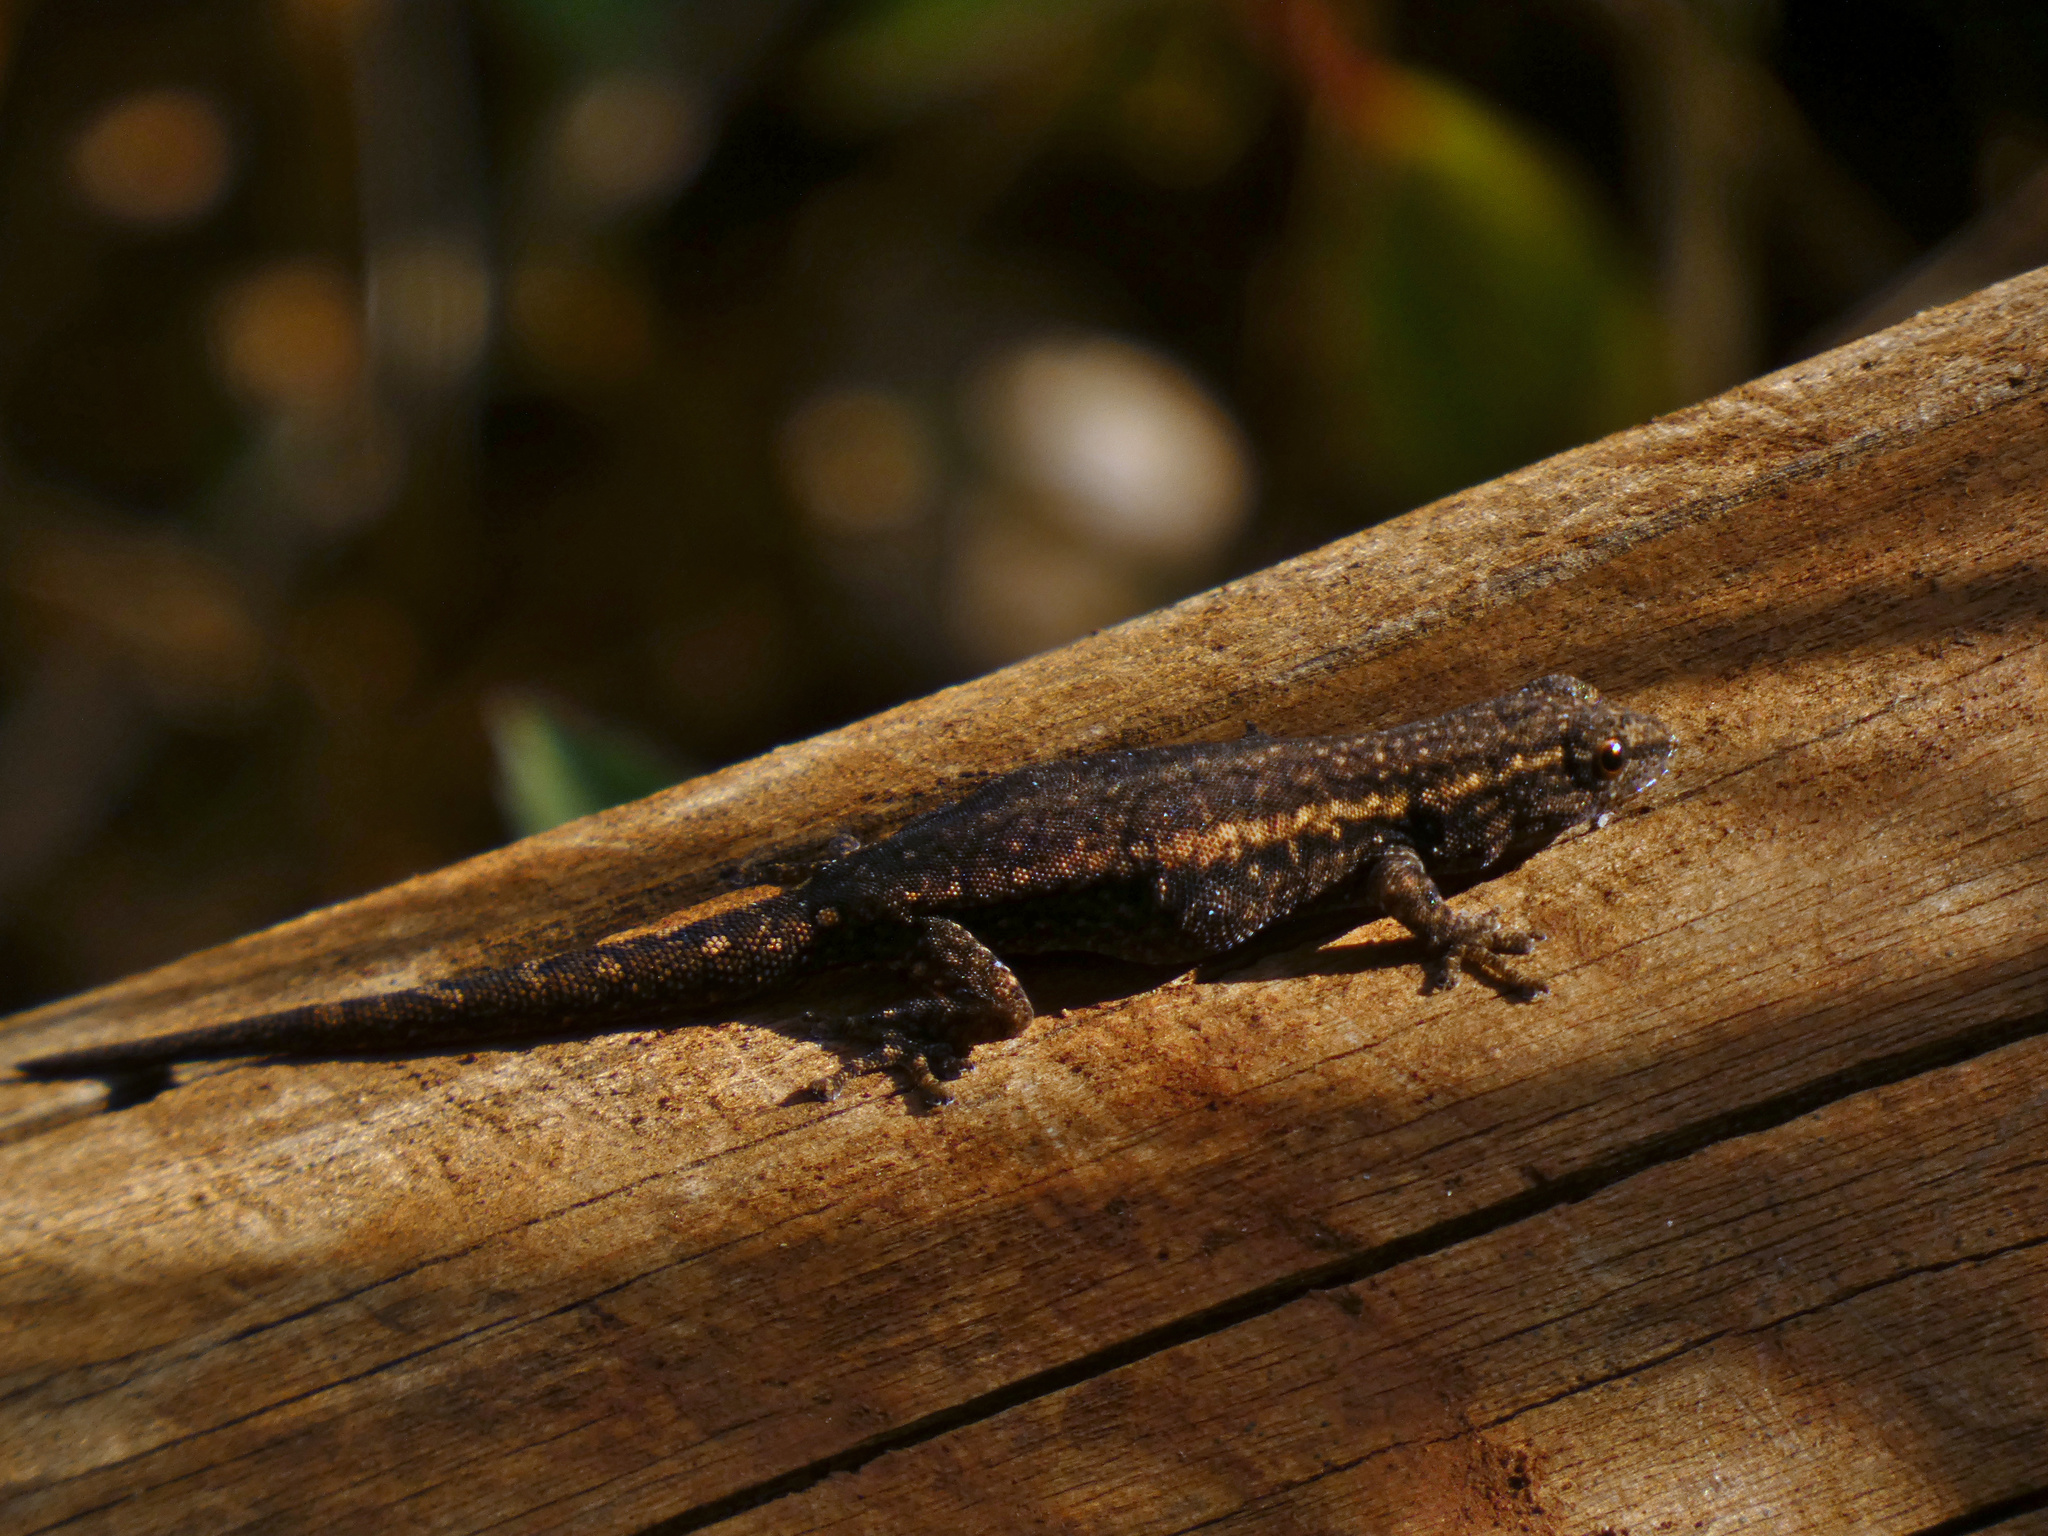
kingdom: Animalia
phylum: Chordata
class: Squamata
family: Gekkonidae
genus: Lygodactylus
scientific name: Lygodactylus capensis
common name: Cape dwarf gecko
